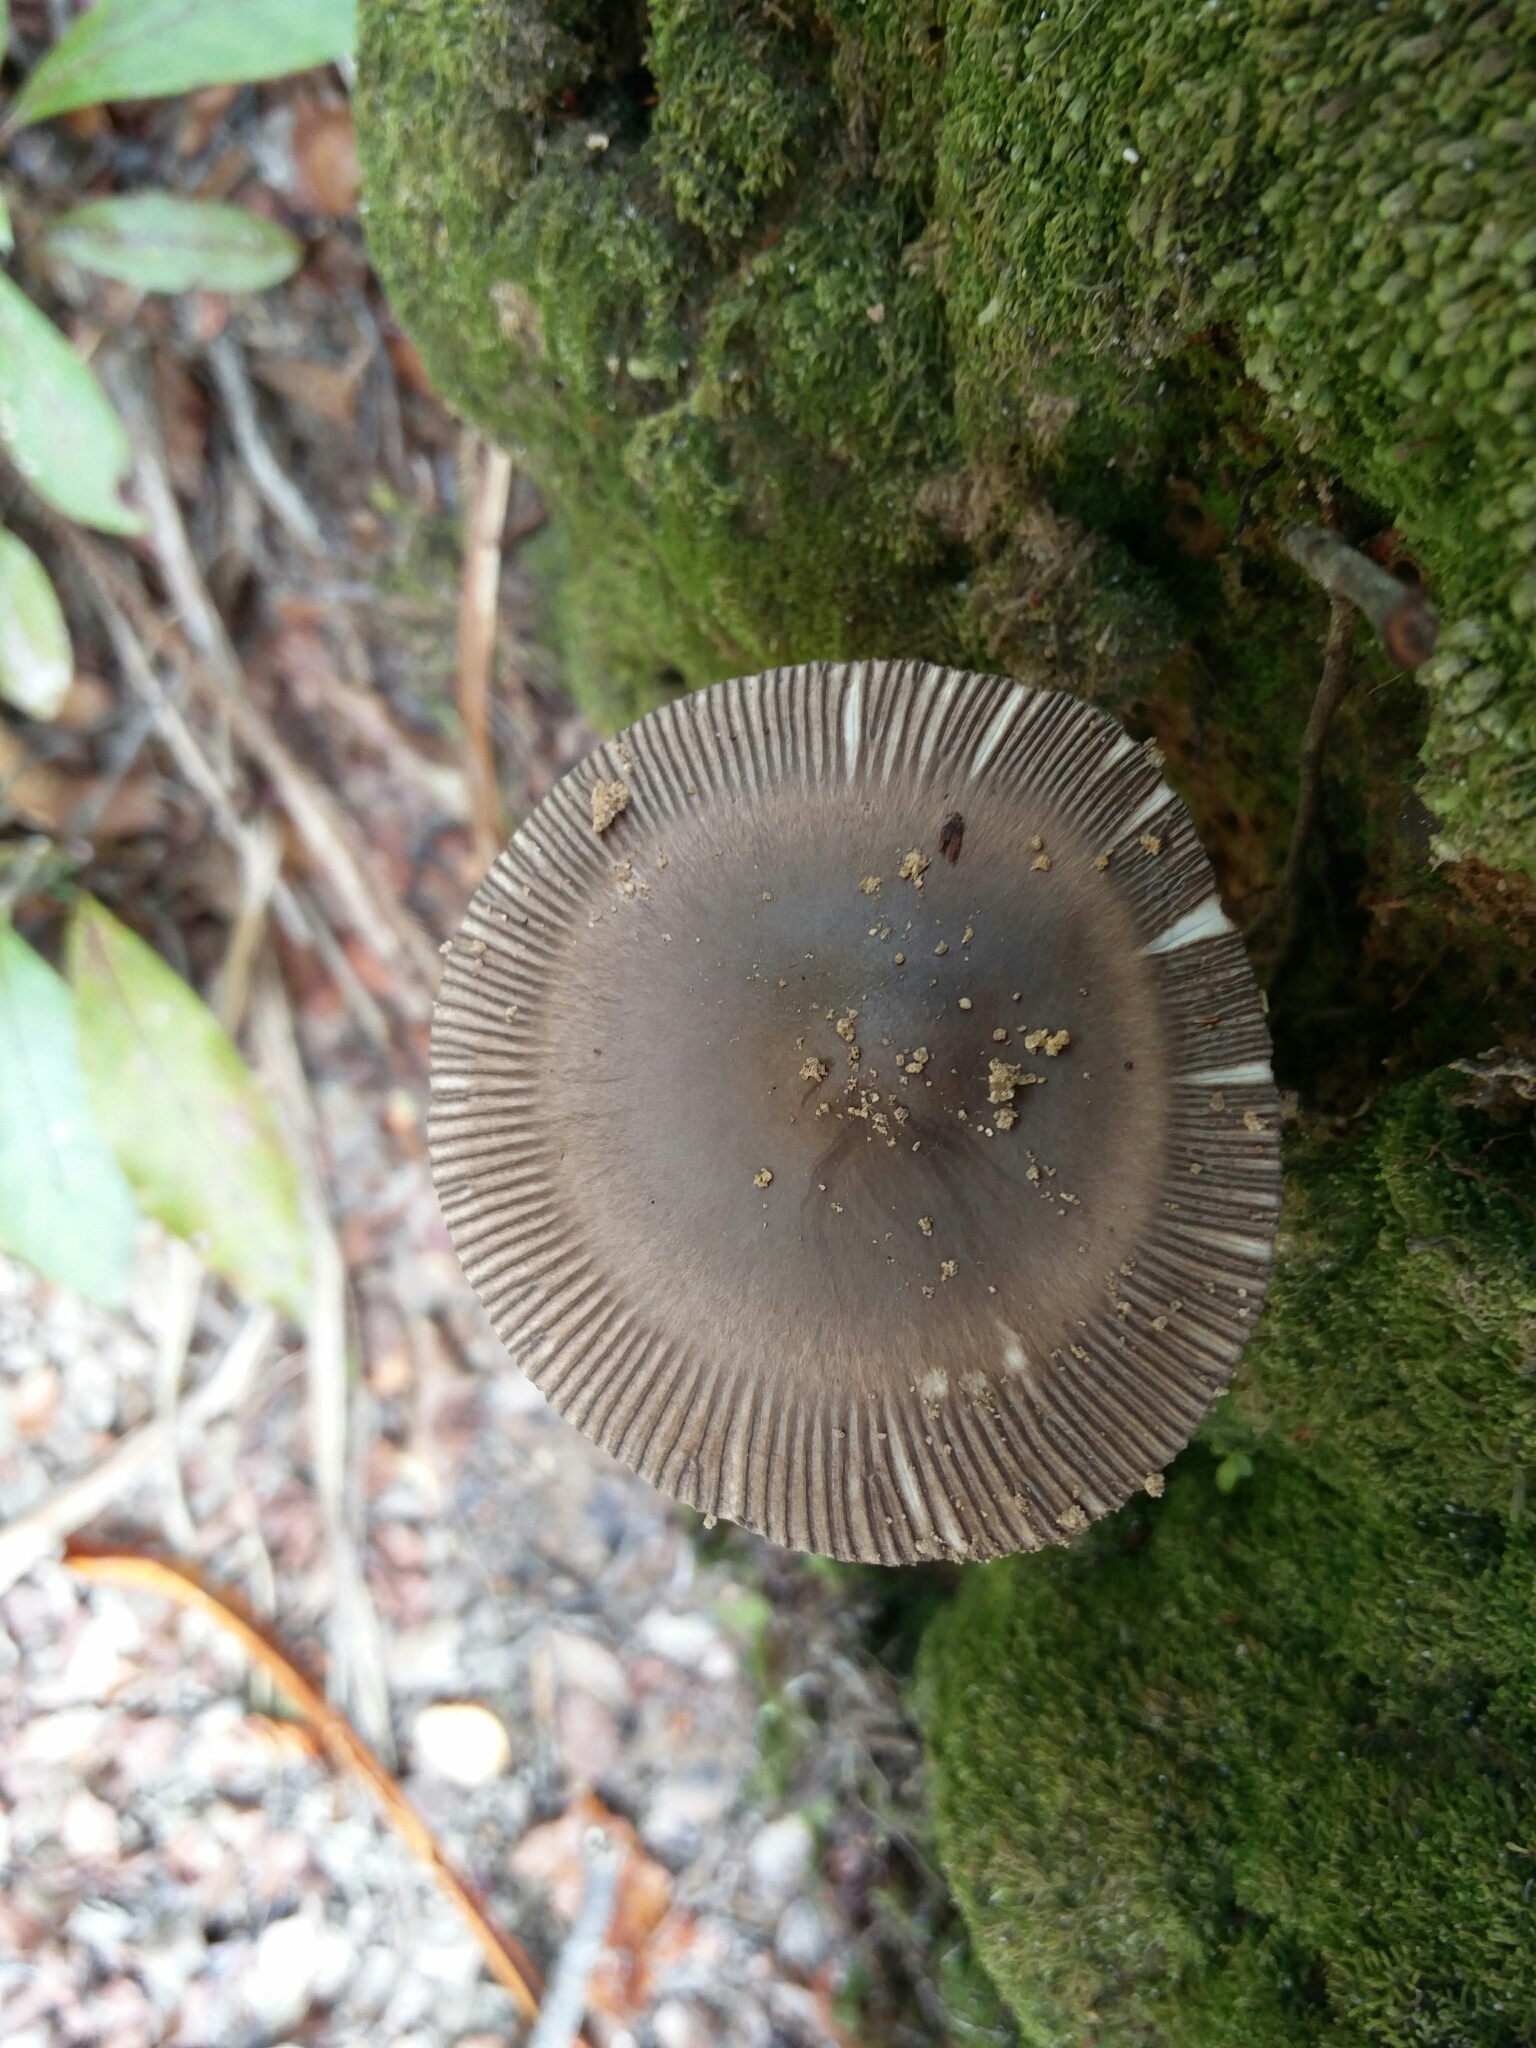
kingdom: Fungi
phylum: Basidiomycota
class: Agaricomycetes
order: Agaricales
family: Amanitaceae
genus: Amanita
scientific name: Amanita pekeoides
